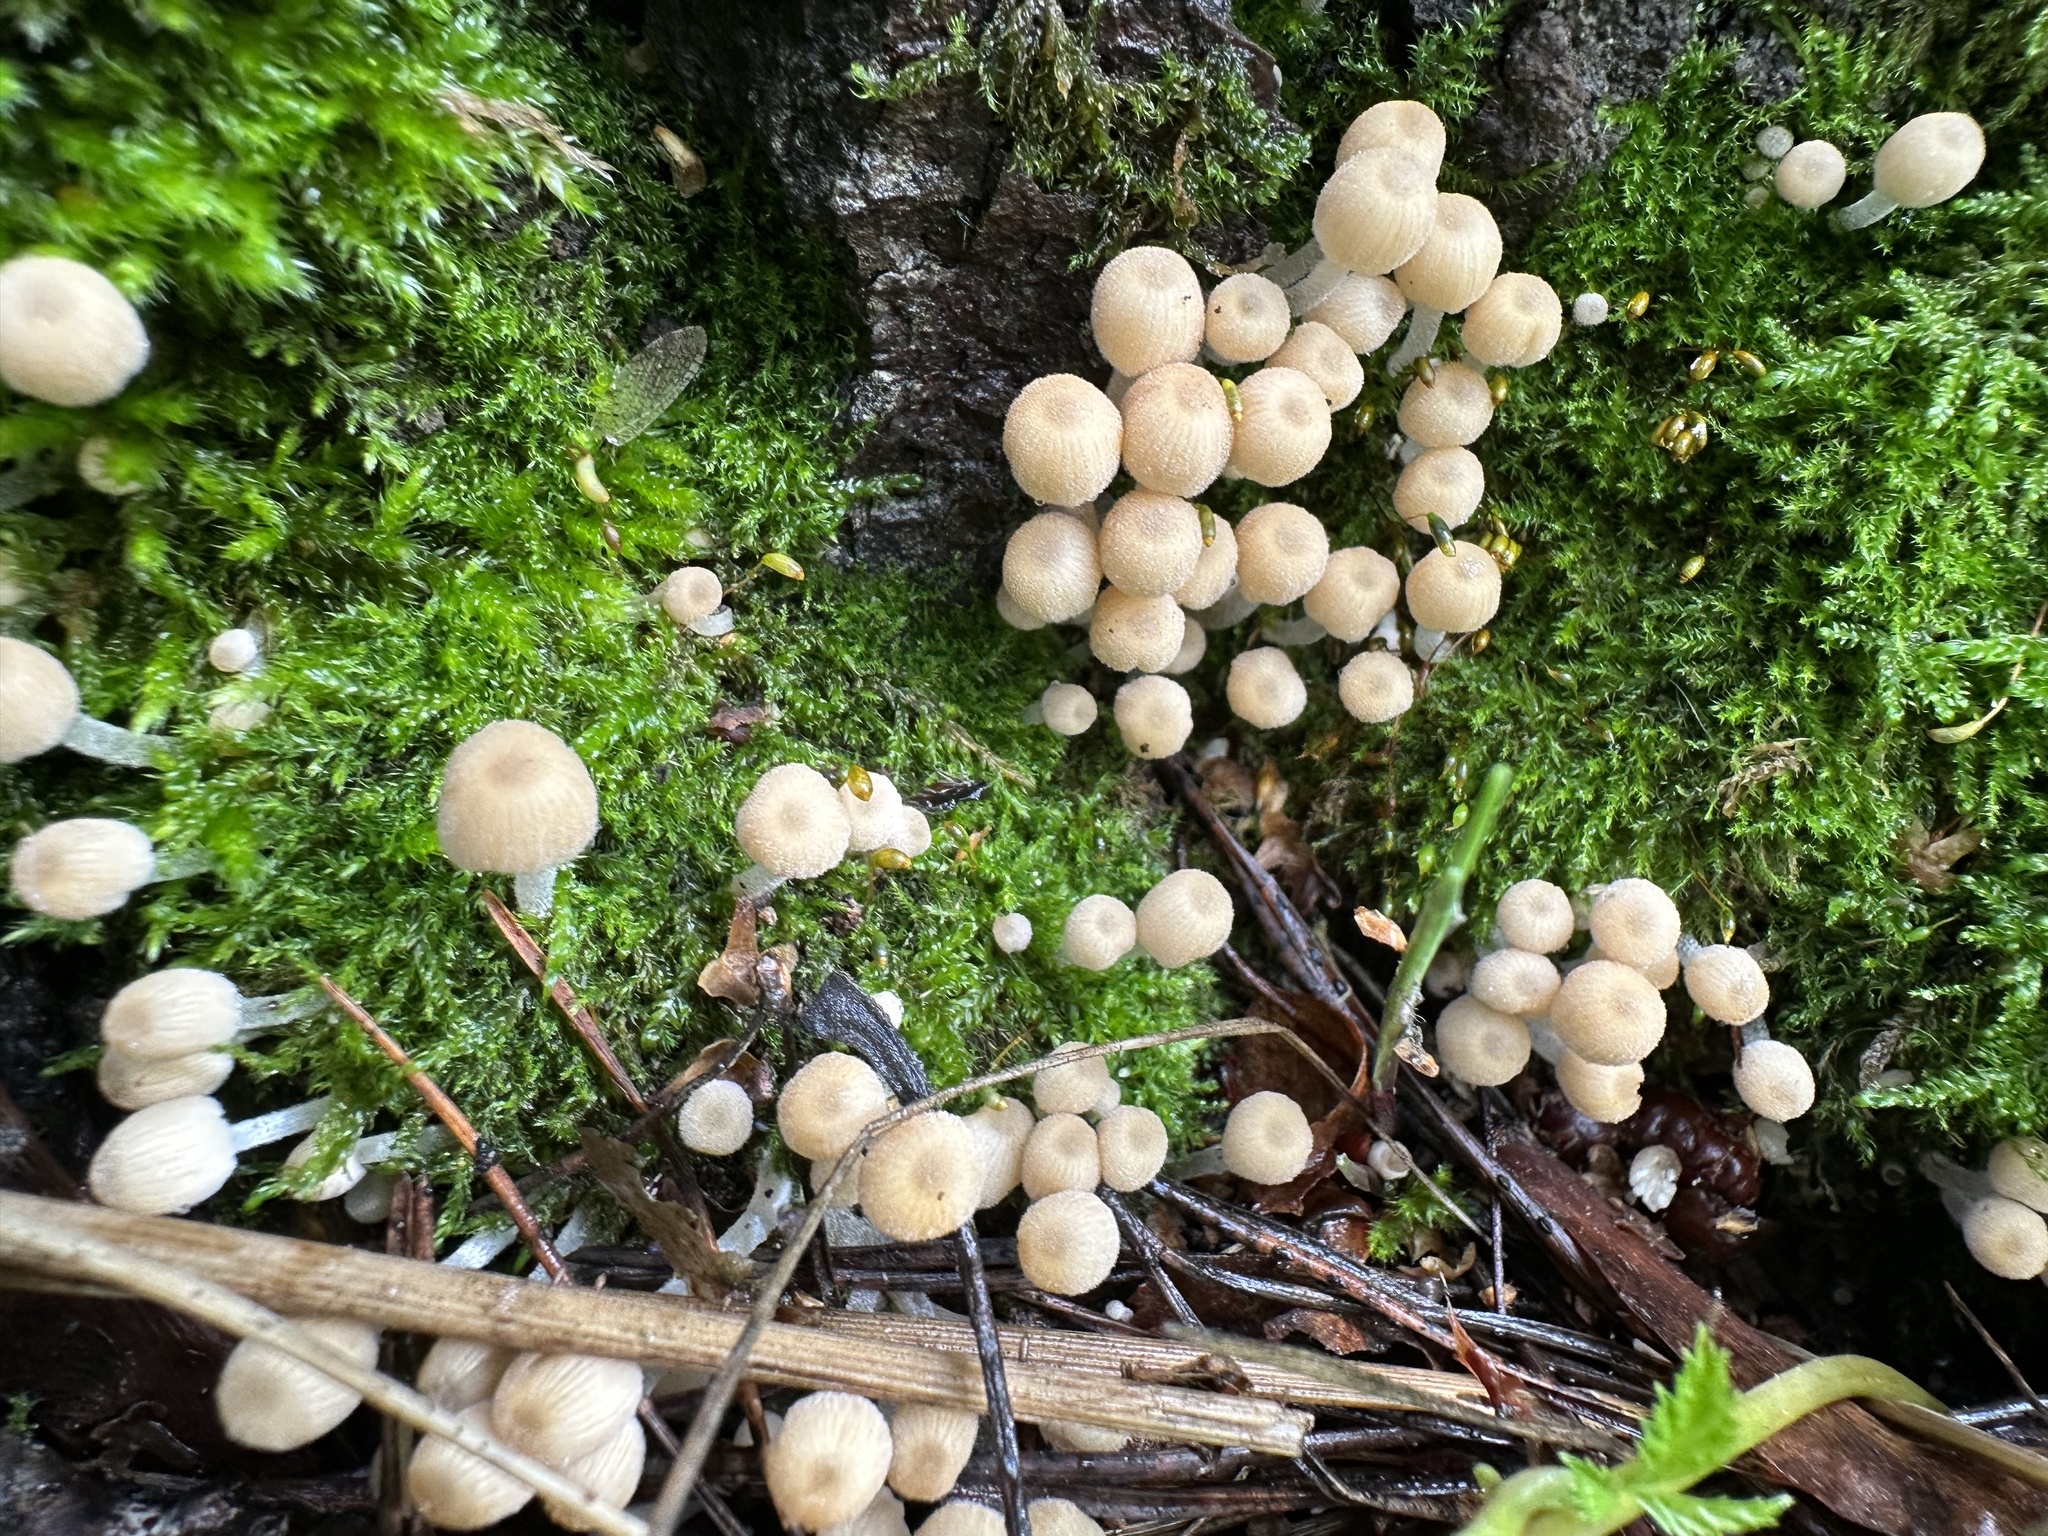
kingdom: Fungi
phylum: Basidiomycota
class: Agaricomycetes
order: Agaricales
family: Psathyrellaceae
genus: Coprinellus
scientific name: Coprinellus disseminatus
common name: Fairies' bonnets
